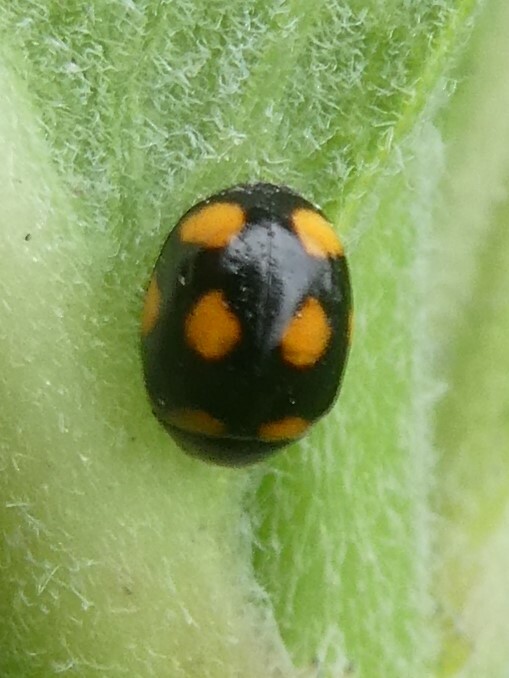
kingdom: Animalia
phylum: Arthropoda
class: Insecta
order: Coleoptera
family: Coccinellidae
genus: Brachiacantha
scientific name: Brachiacantha ursina
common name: Ursine spurleg lady beetle
